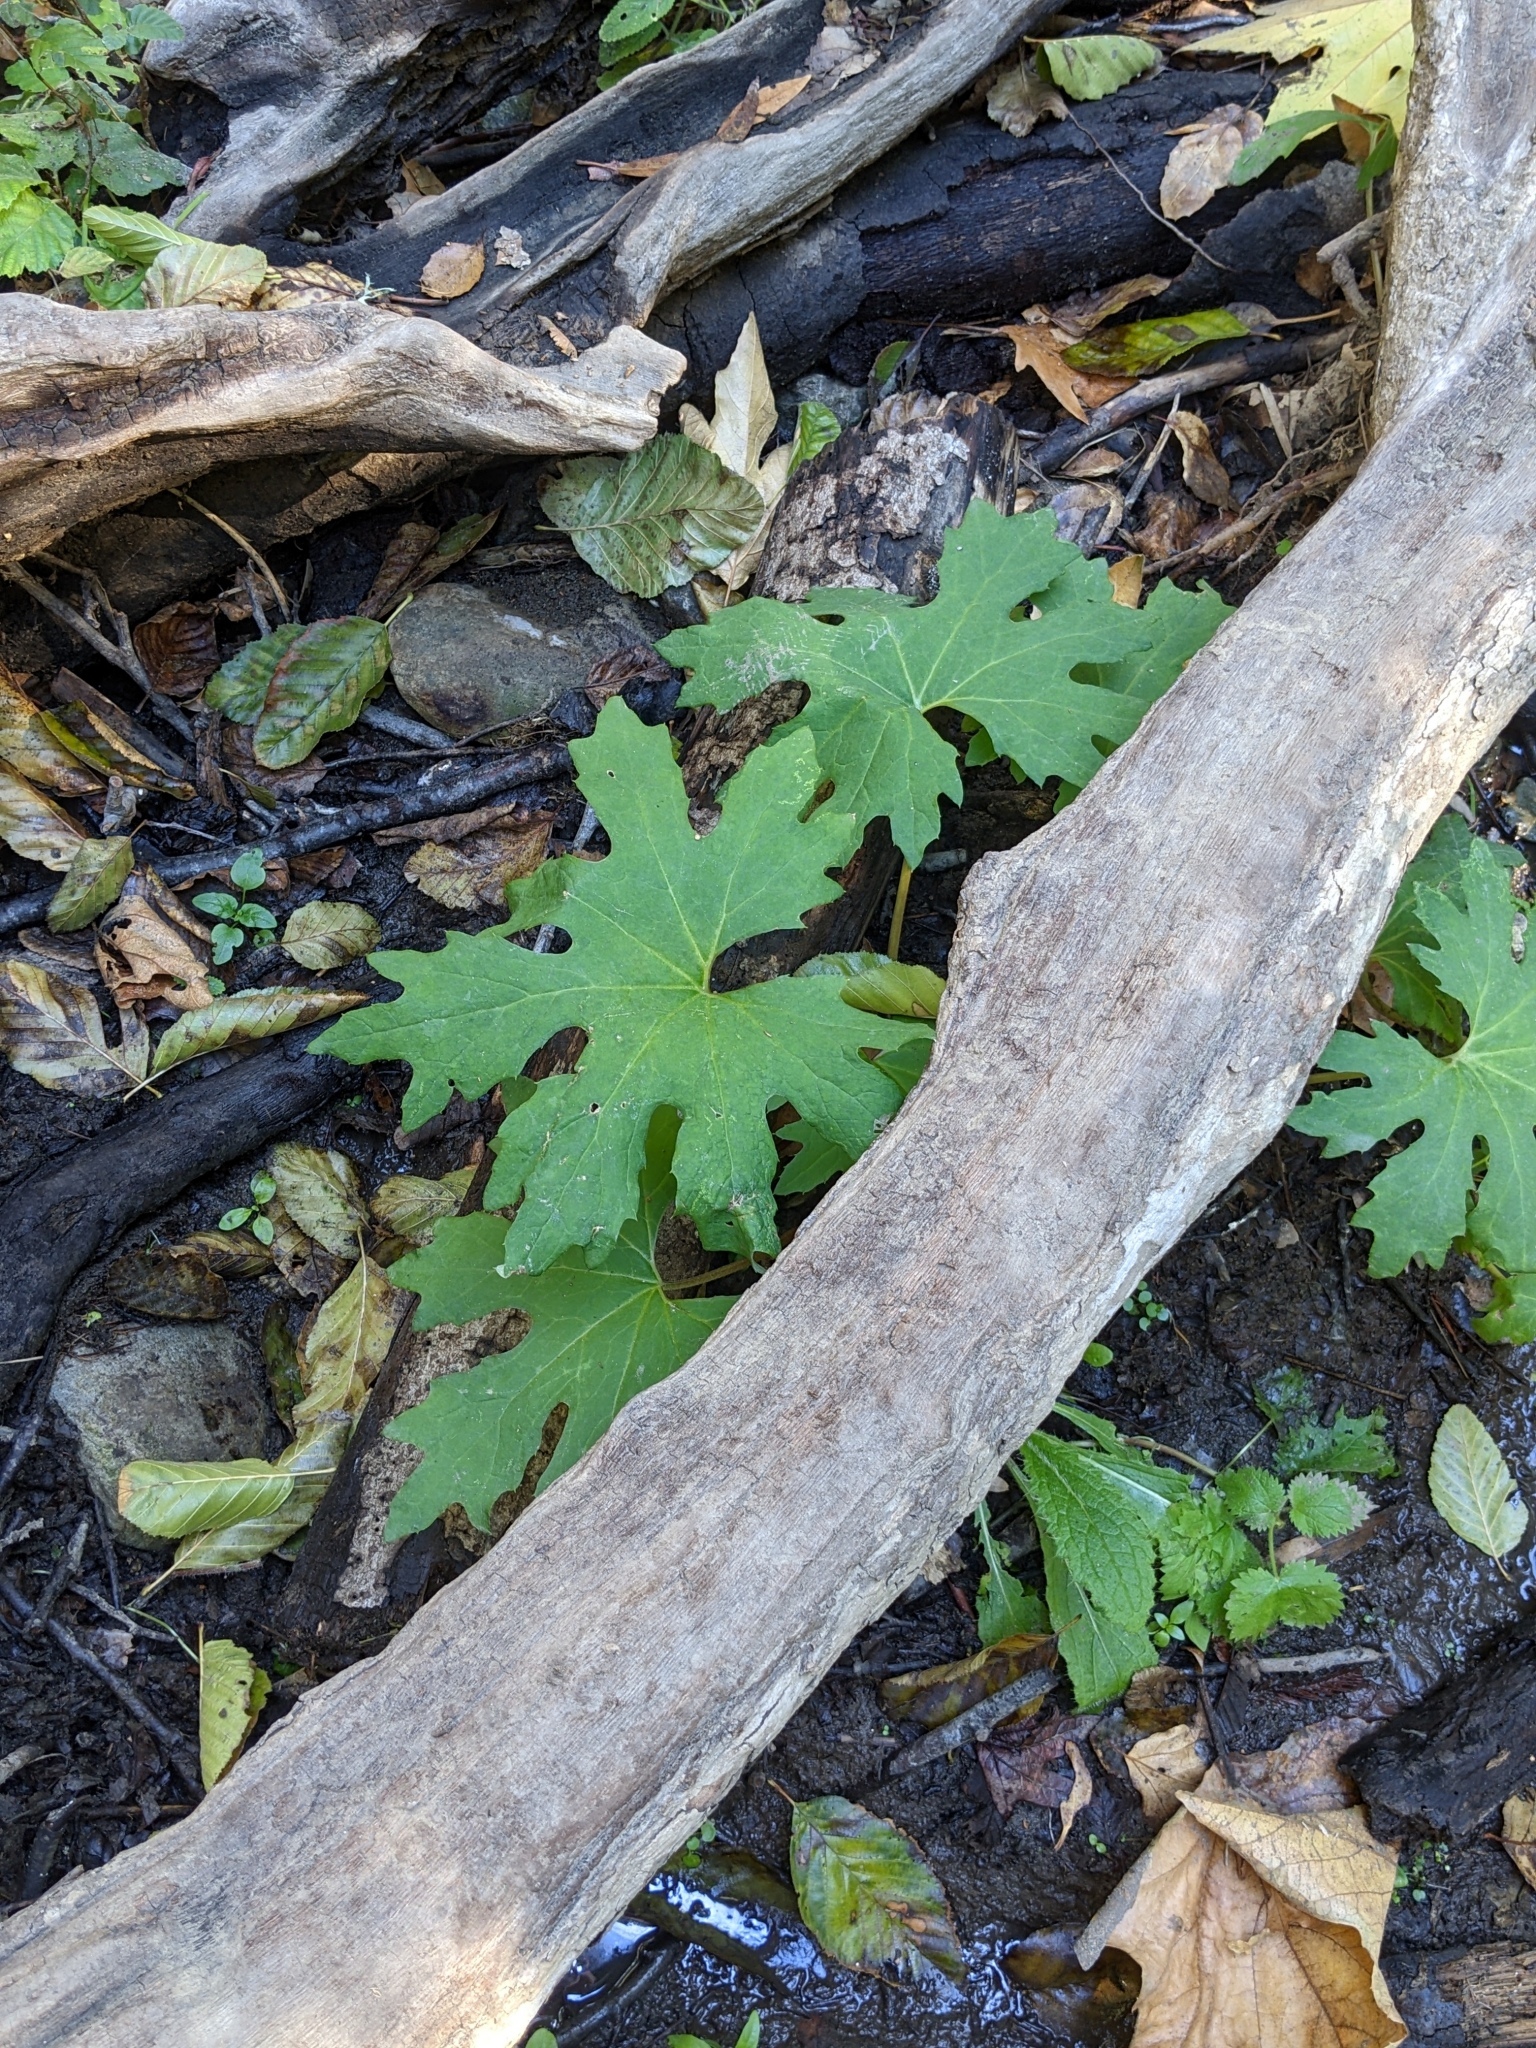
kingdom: Plantae
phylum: Tracheophyta
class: Magnoliopsida
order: Asterales
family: Asteraceae
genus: Petasites
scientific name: Petasites frigidus
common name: Arctic butterbur
